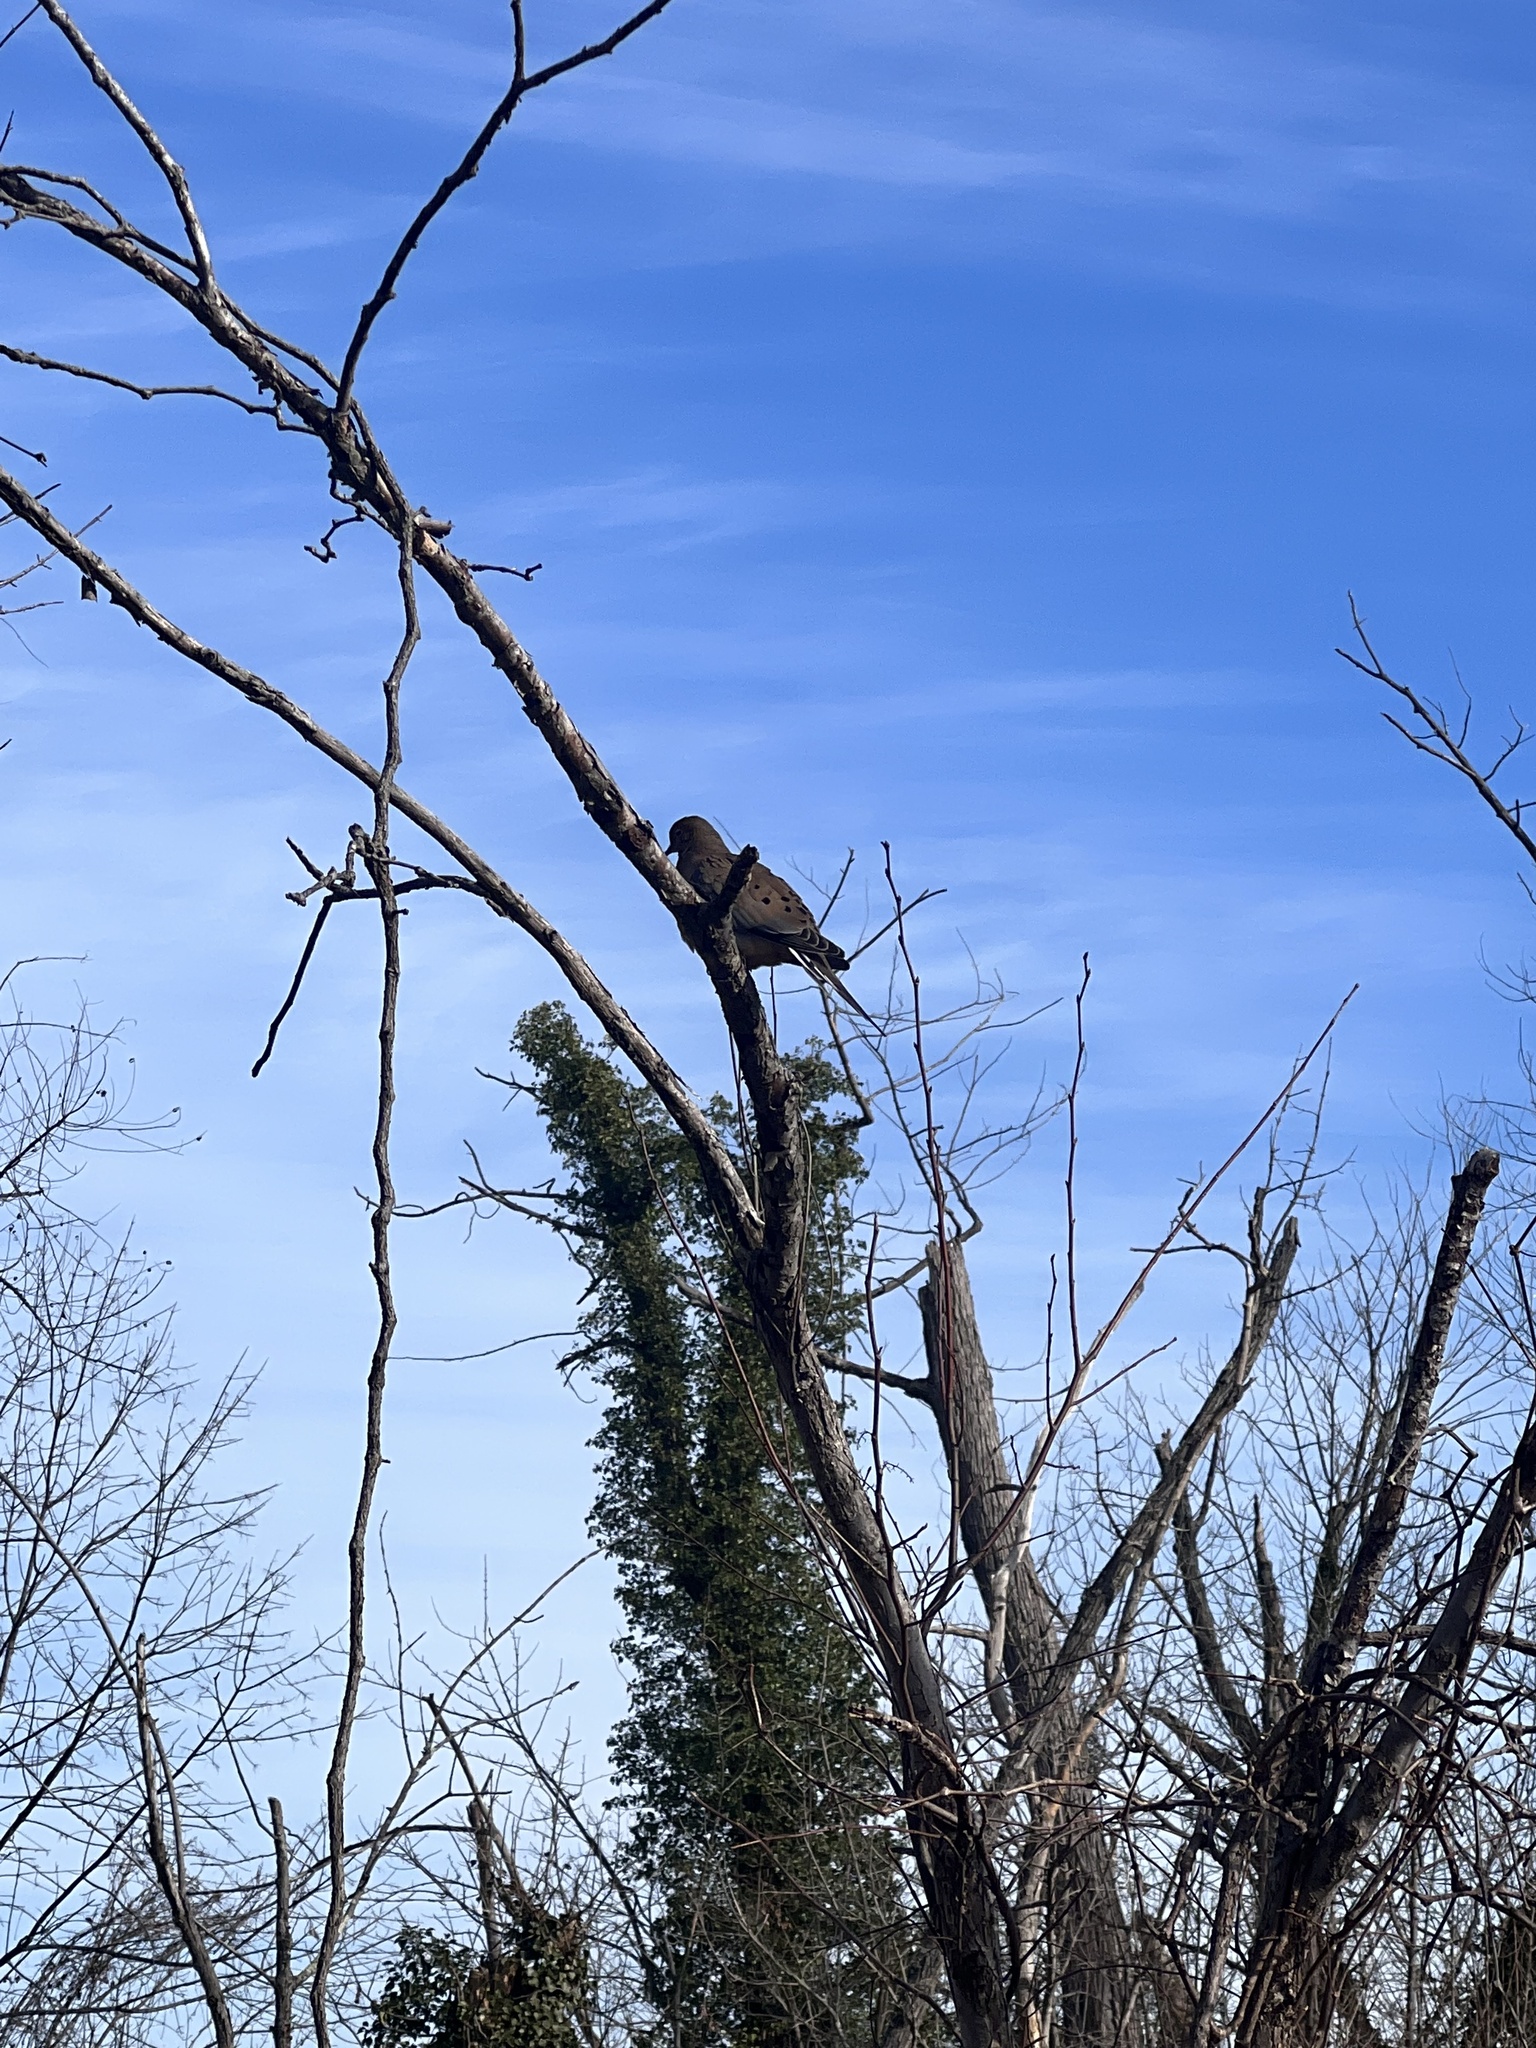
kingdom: Animalia
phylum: Chordata
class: Aves
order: Columbiformes
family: Columbidae
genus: Zenaida
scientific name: Zenaida macroura
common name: Mourning dove
